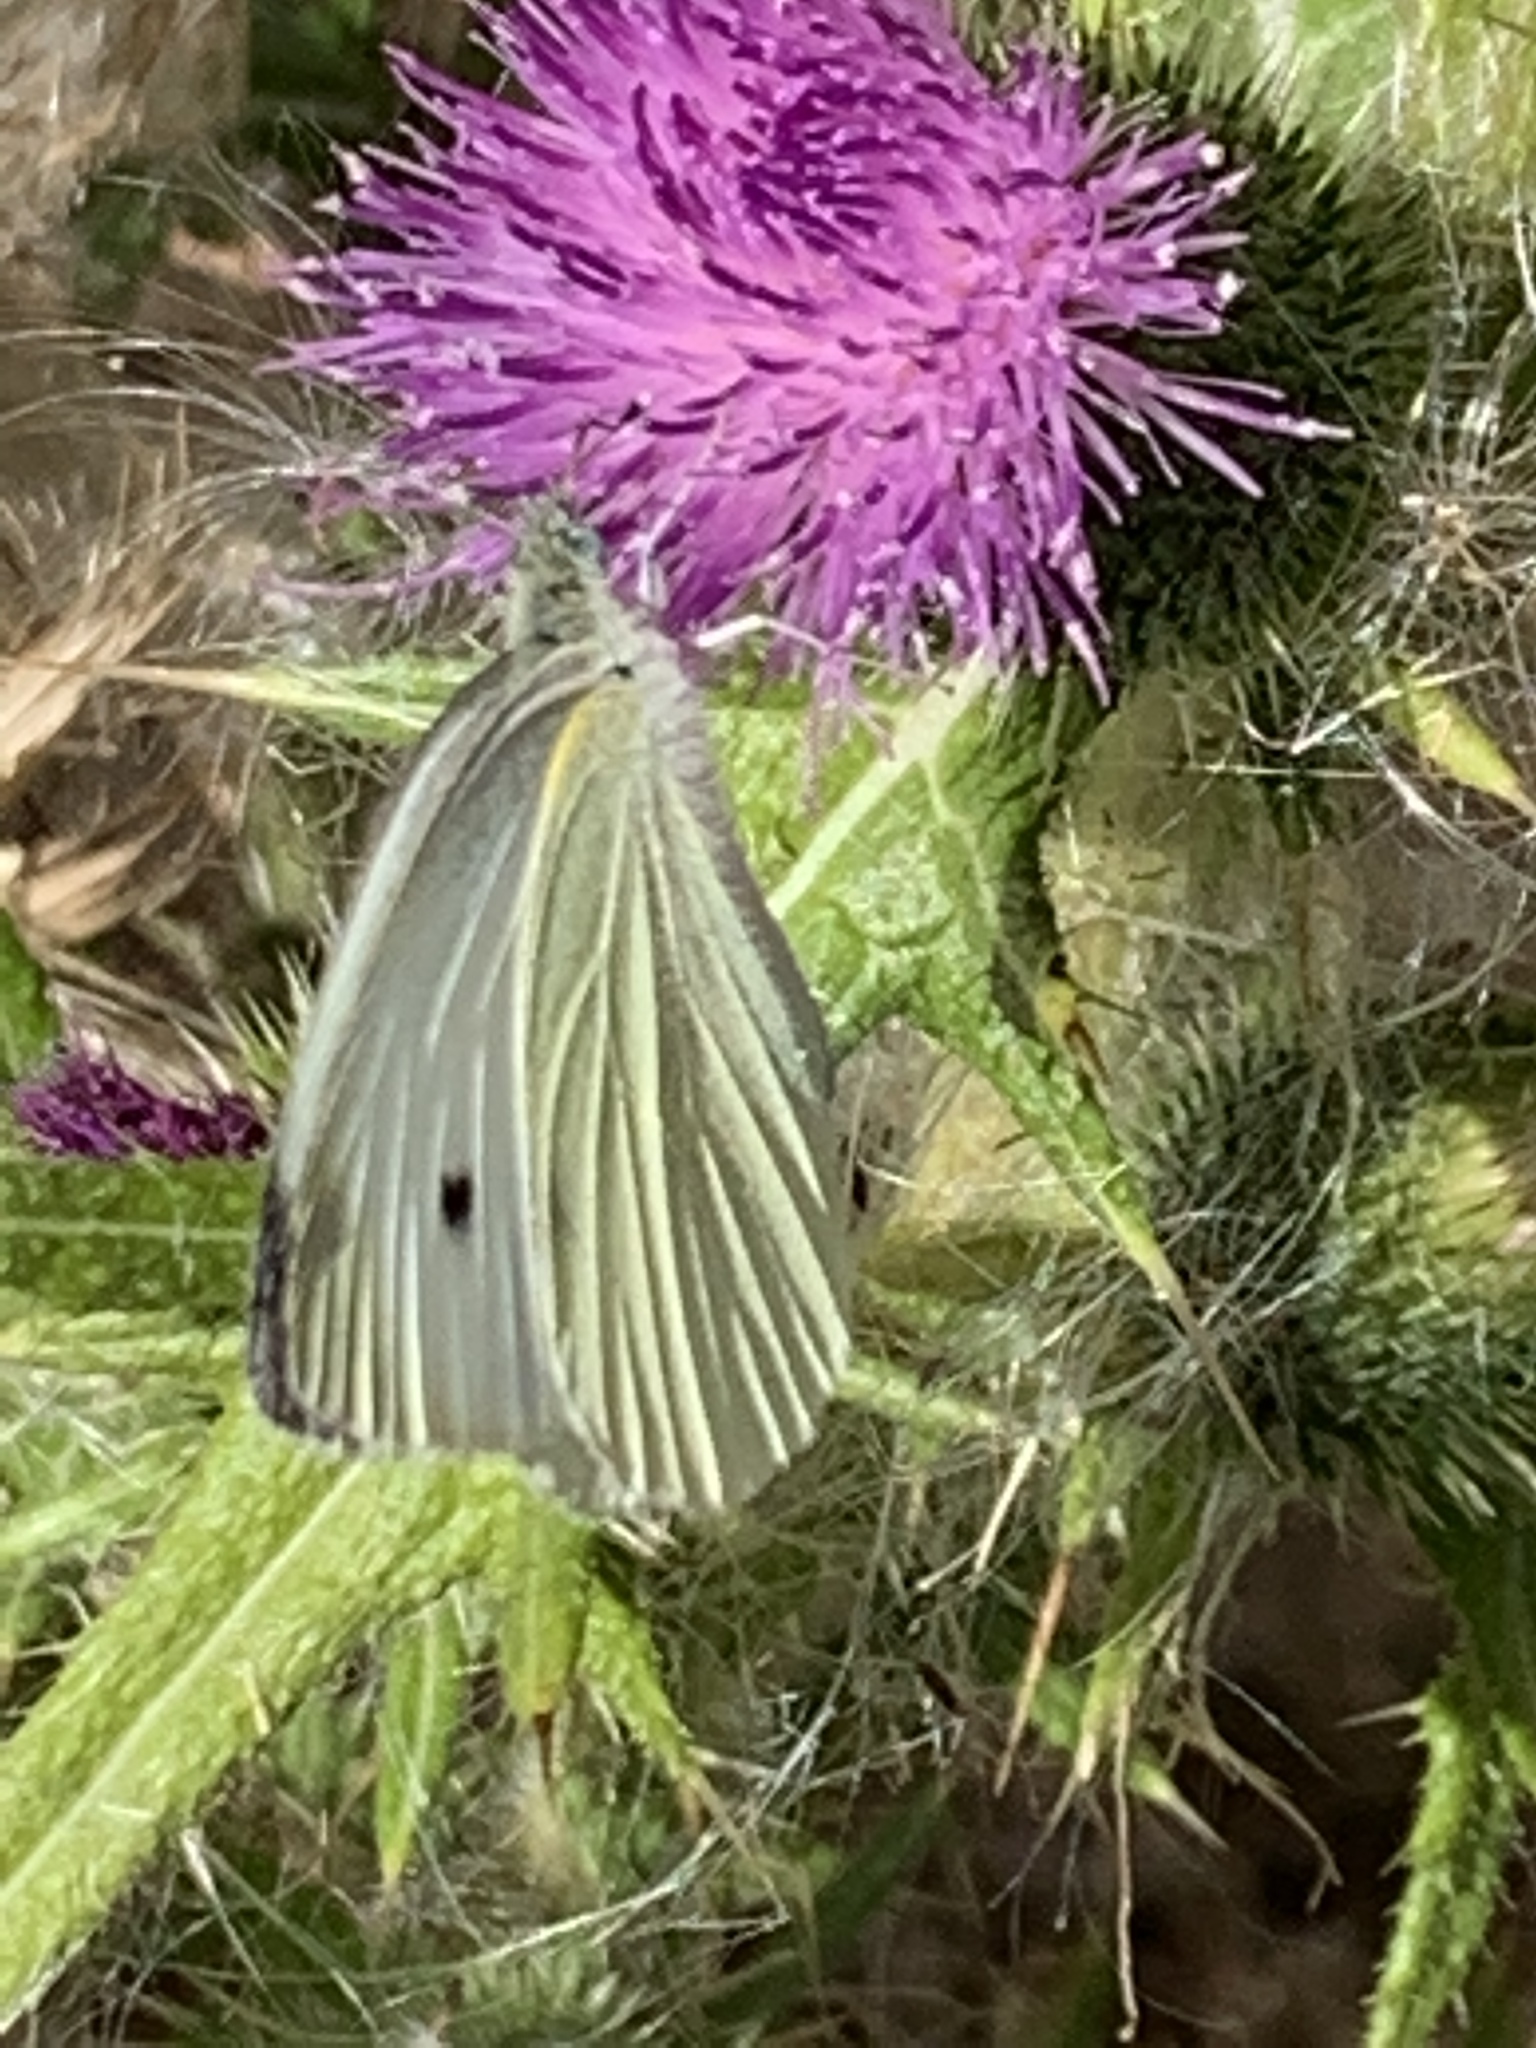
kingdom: Animalia
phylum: Arthropoda
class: Insecta
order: Lepidoptera
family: Pieridae
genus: Pieris
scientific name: Pieris rapae
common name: Small white
